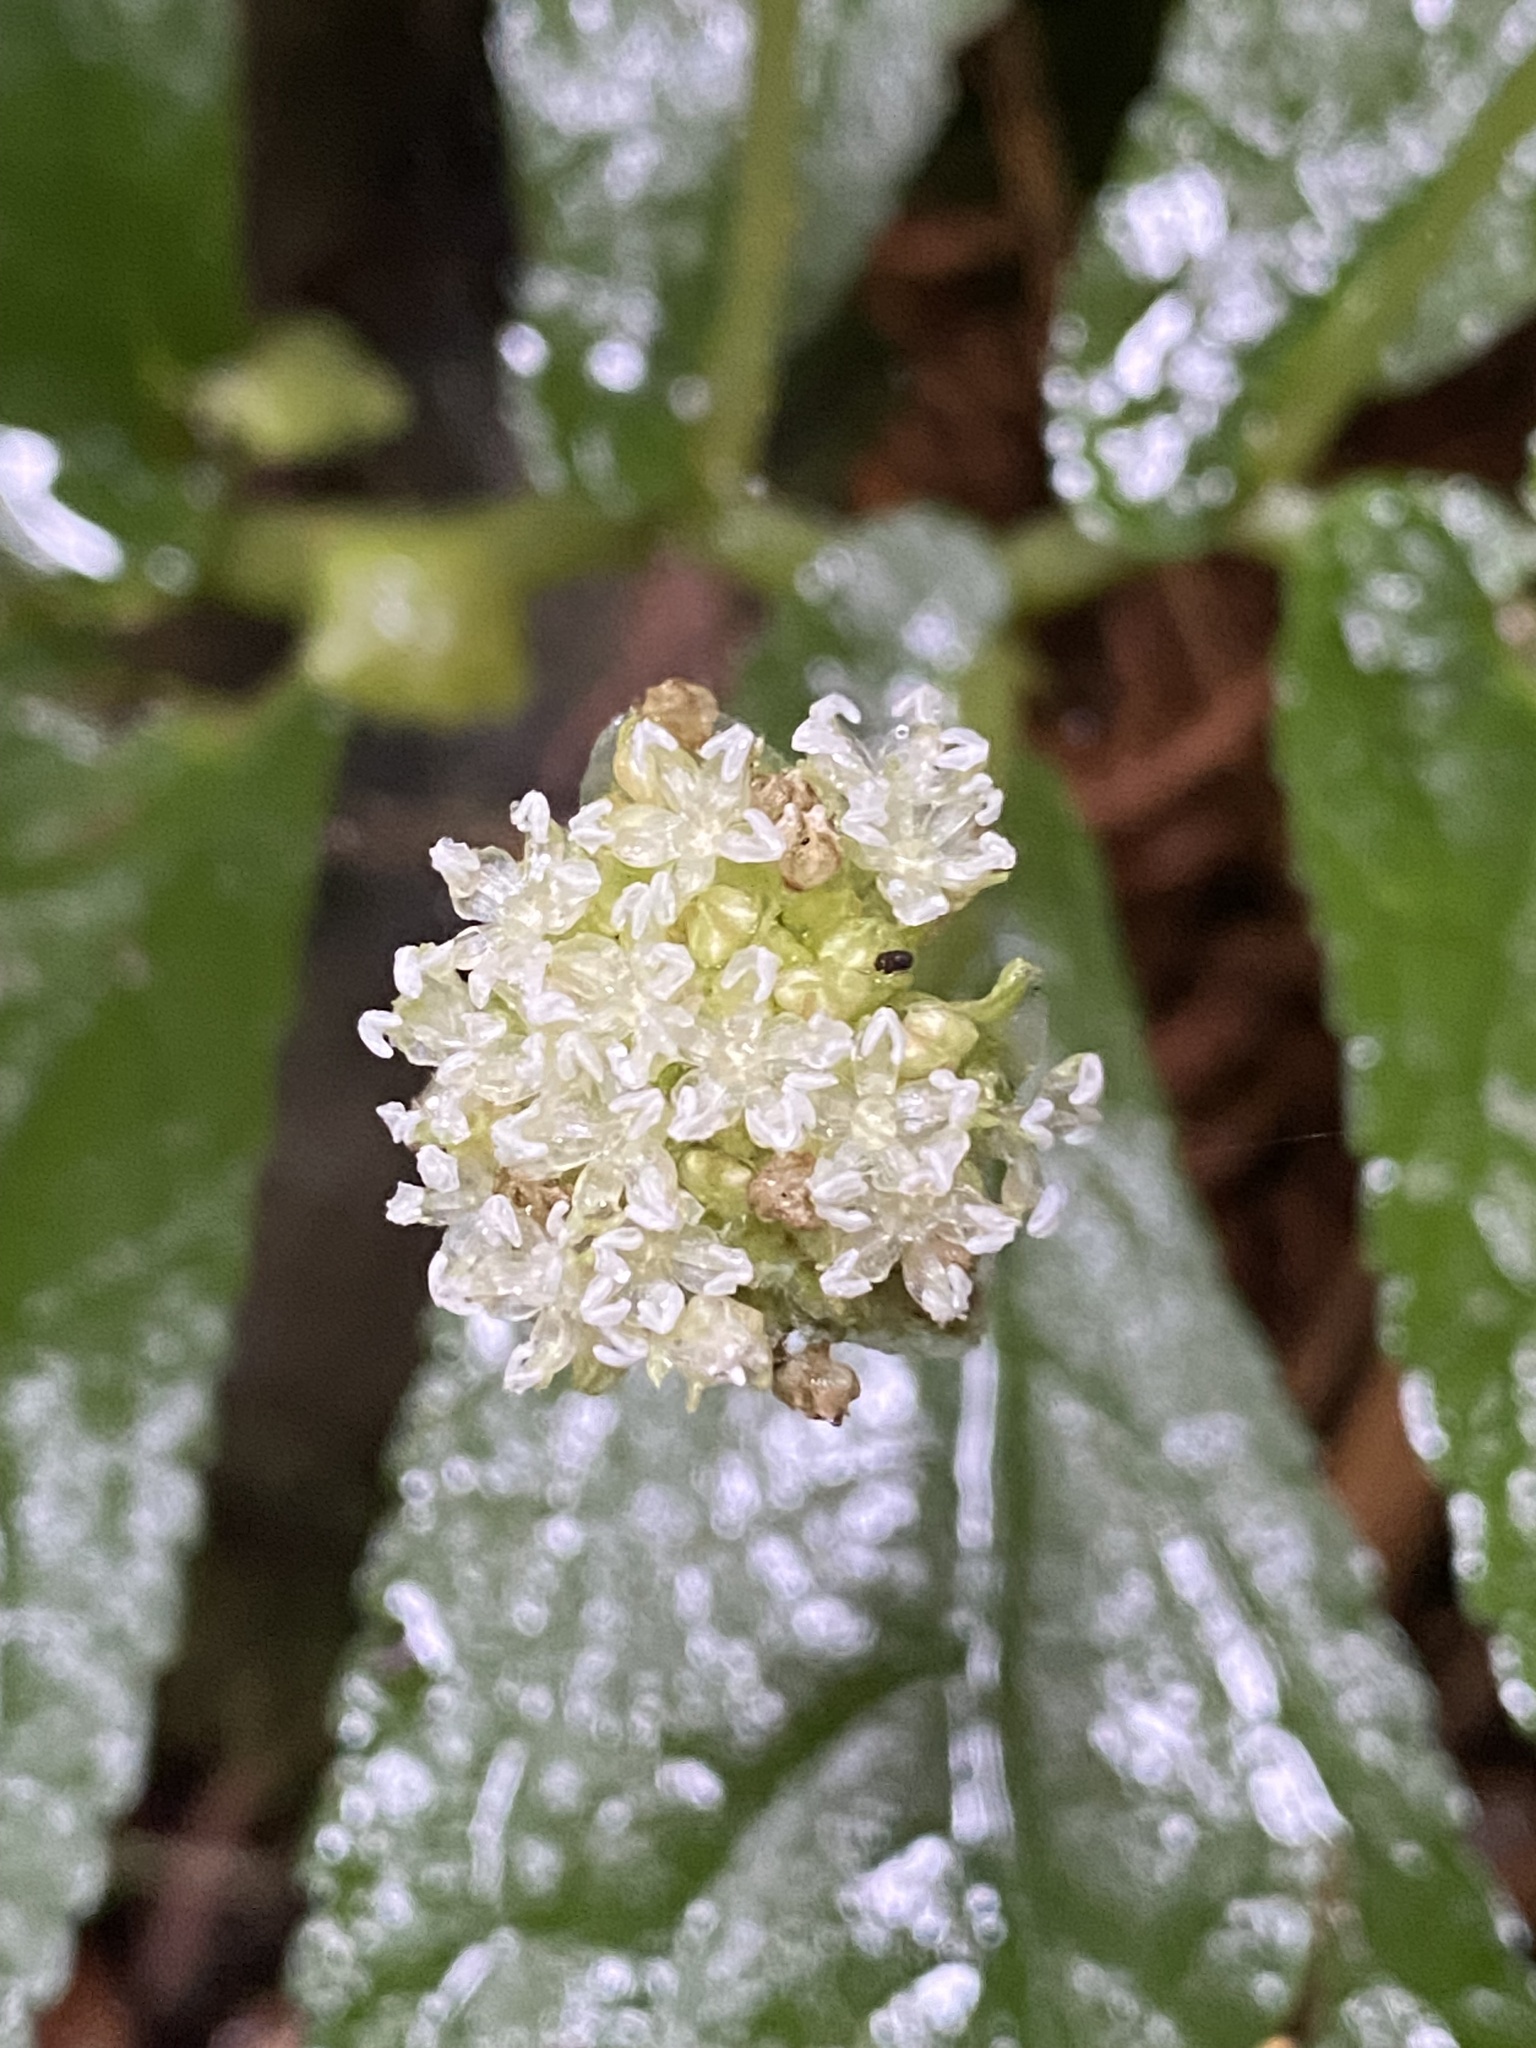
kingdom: Plantae
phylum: Tracheophyta
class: Magnoliopsida
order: Rosales
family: Urticaceae
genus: Elatostema
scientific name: Elatostema reticulatum
